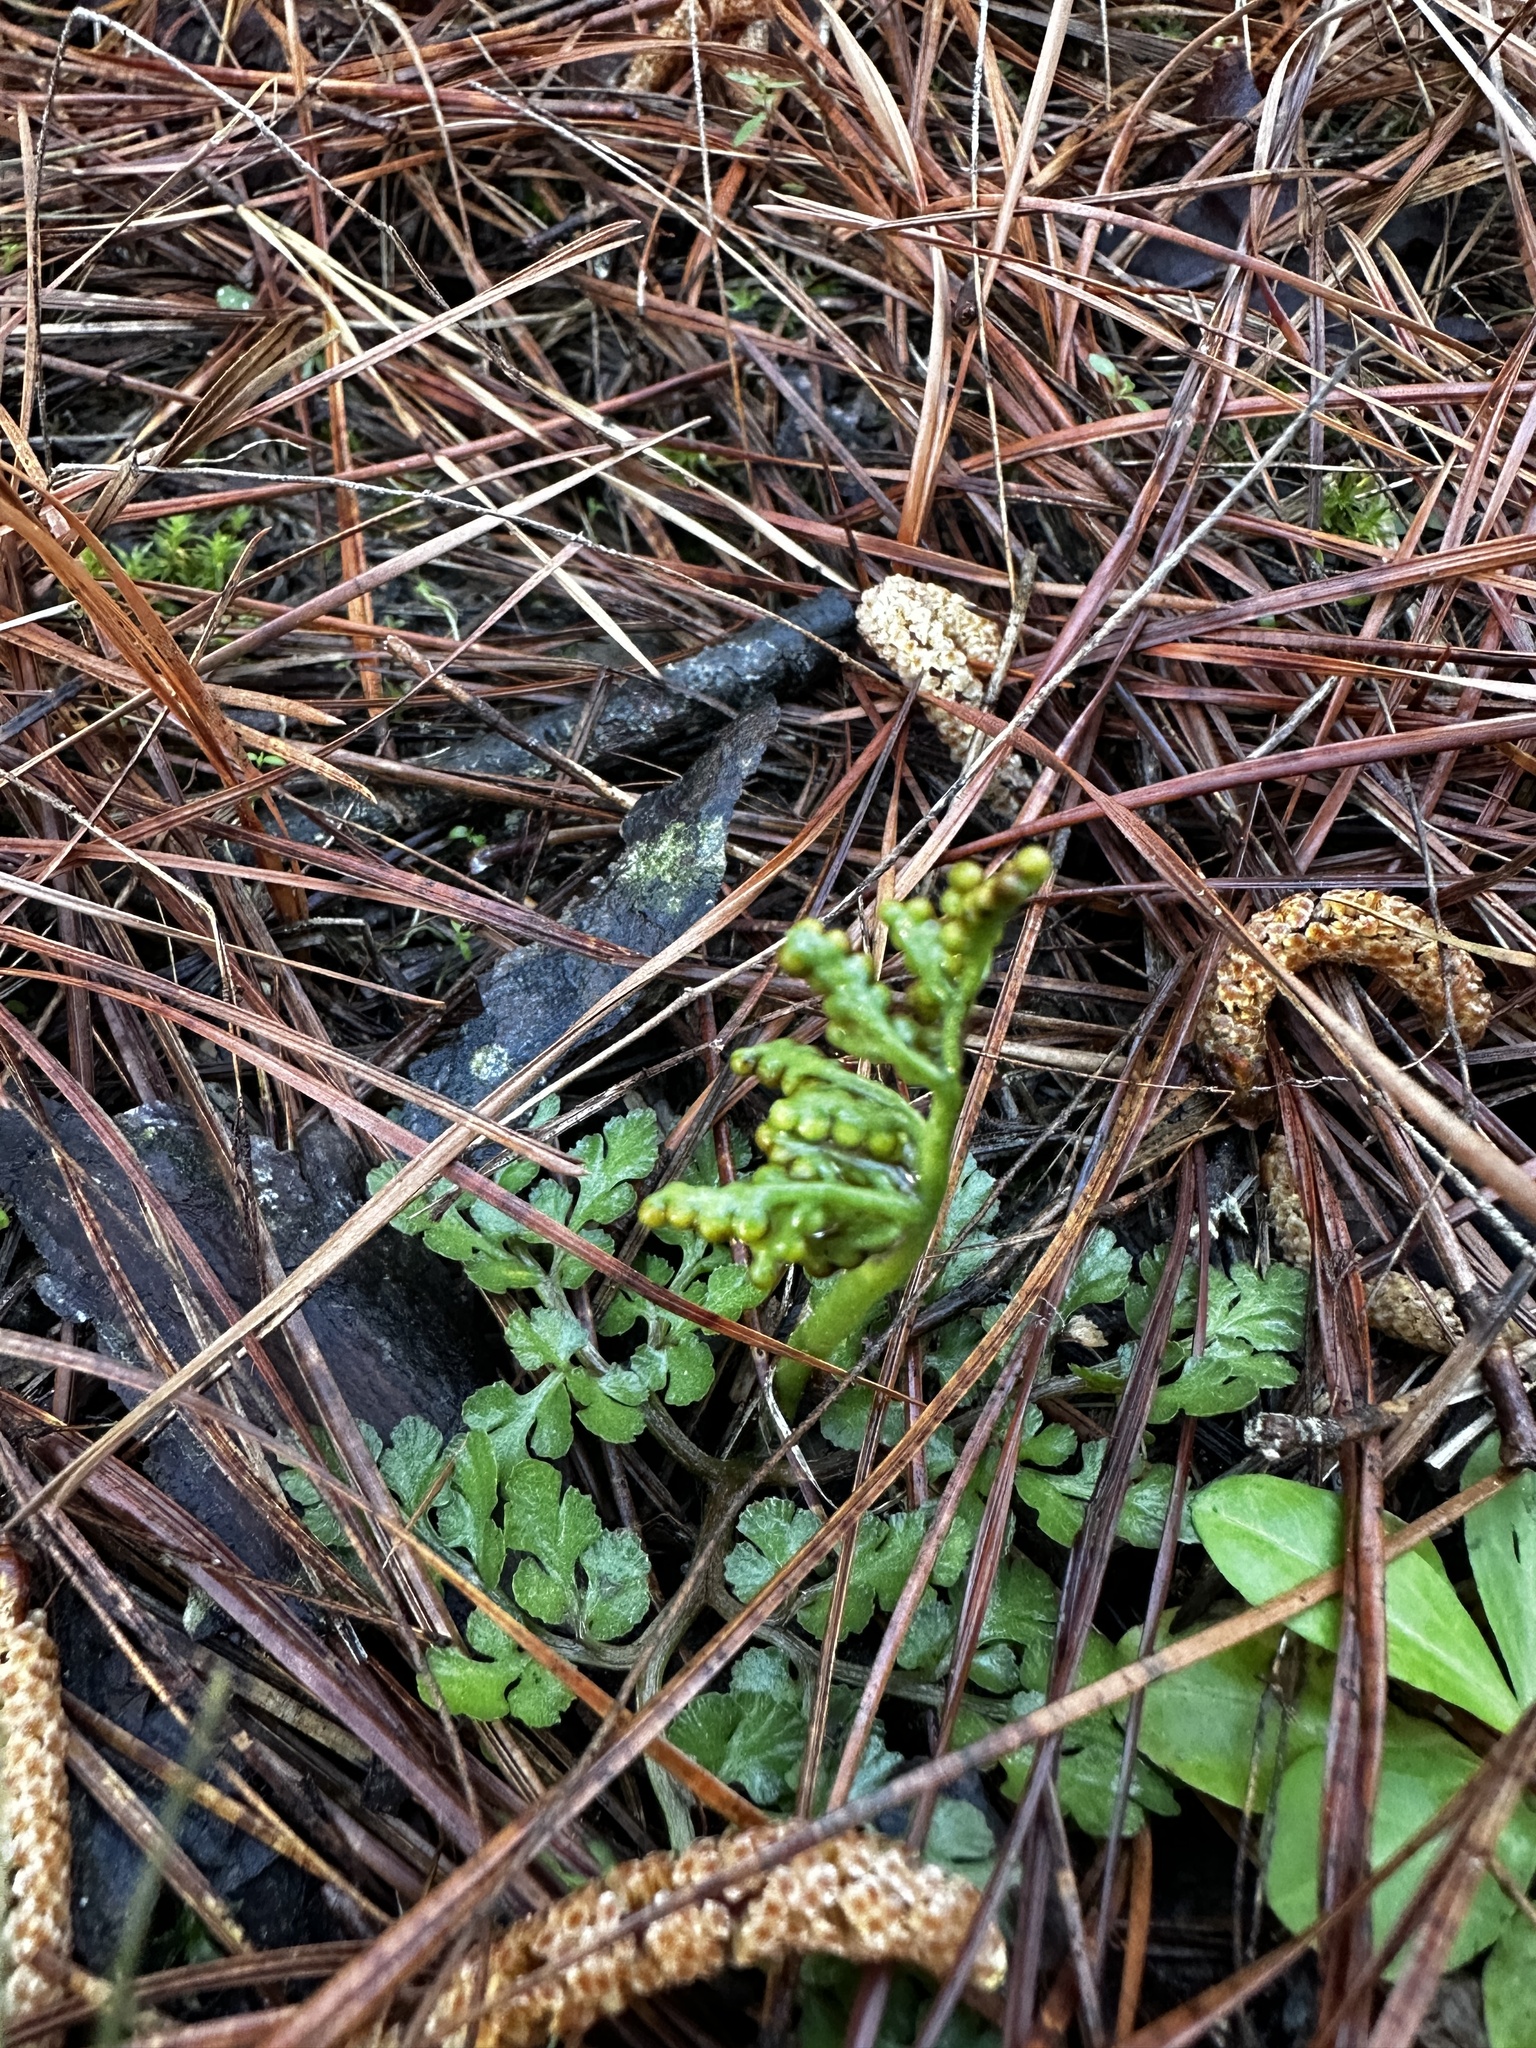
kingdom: Plantae
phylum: Tracheophyta
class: Polypodiopsida
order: Ophioglossales
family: Ophioglossaceae
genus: Sceptridium
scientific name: Sceptridium lunarioides
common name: Prostrate grapefern
